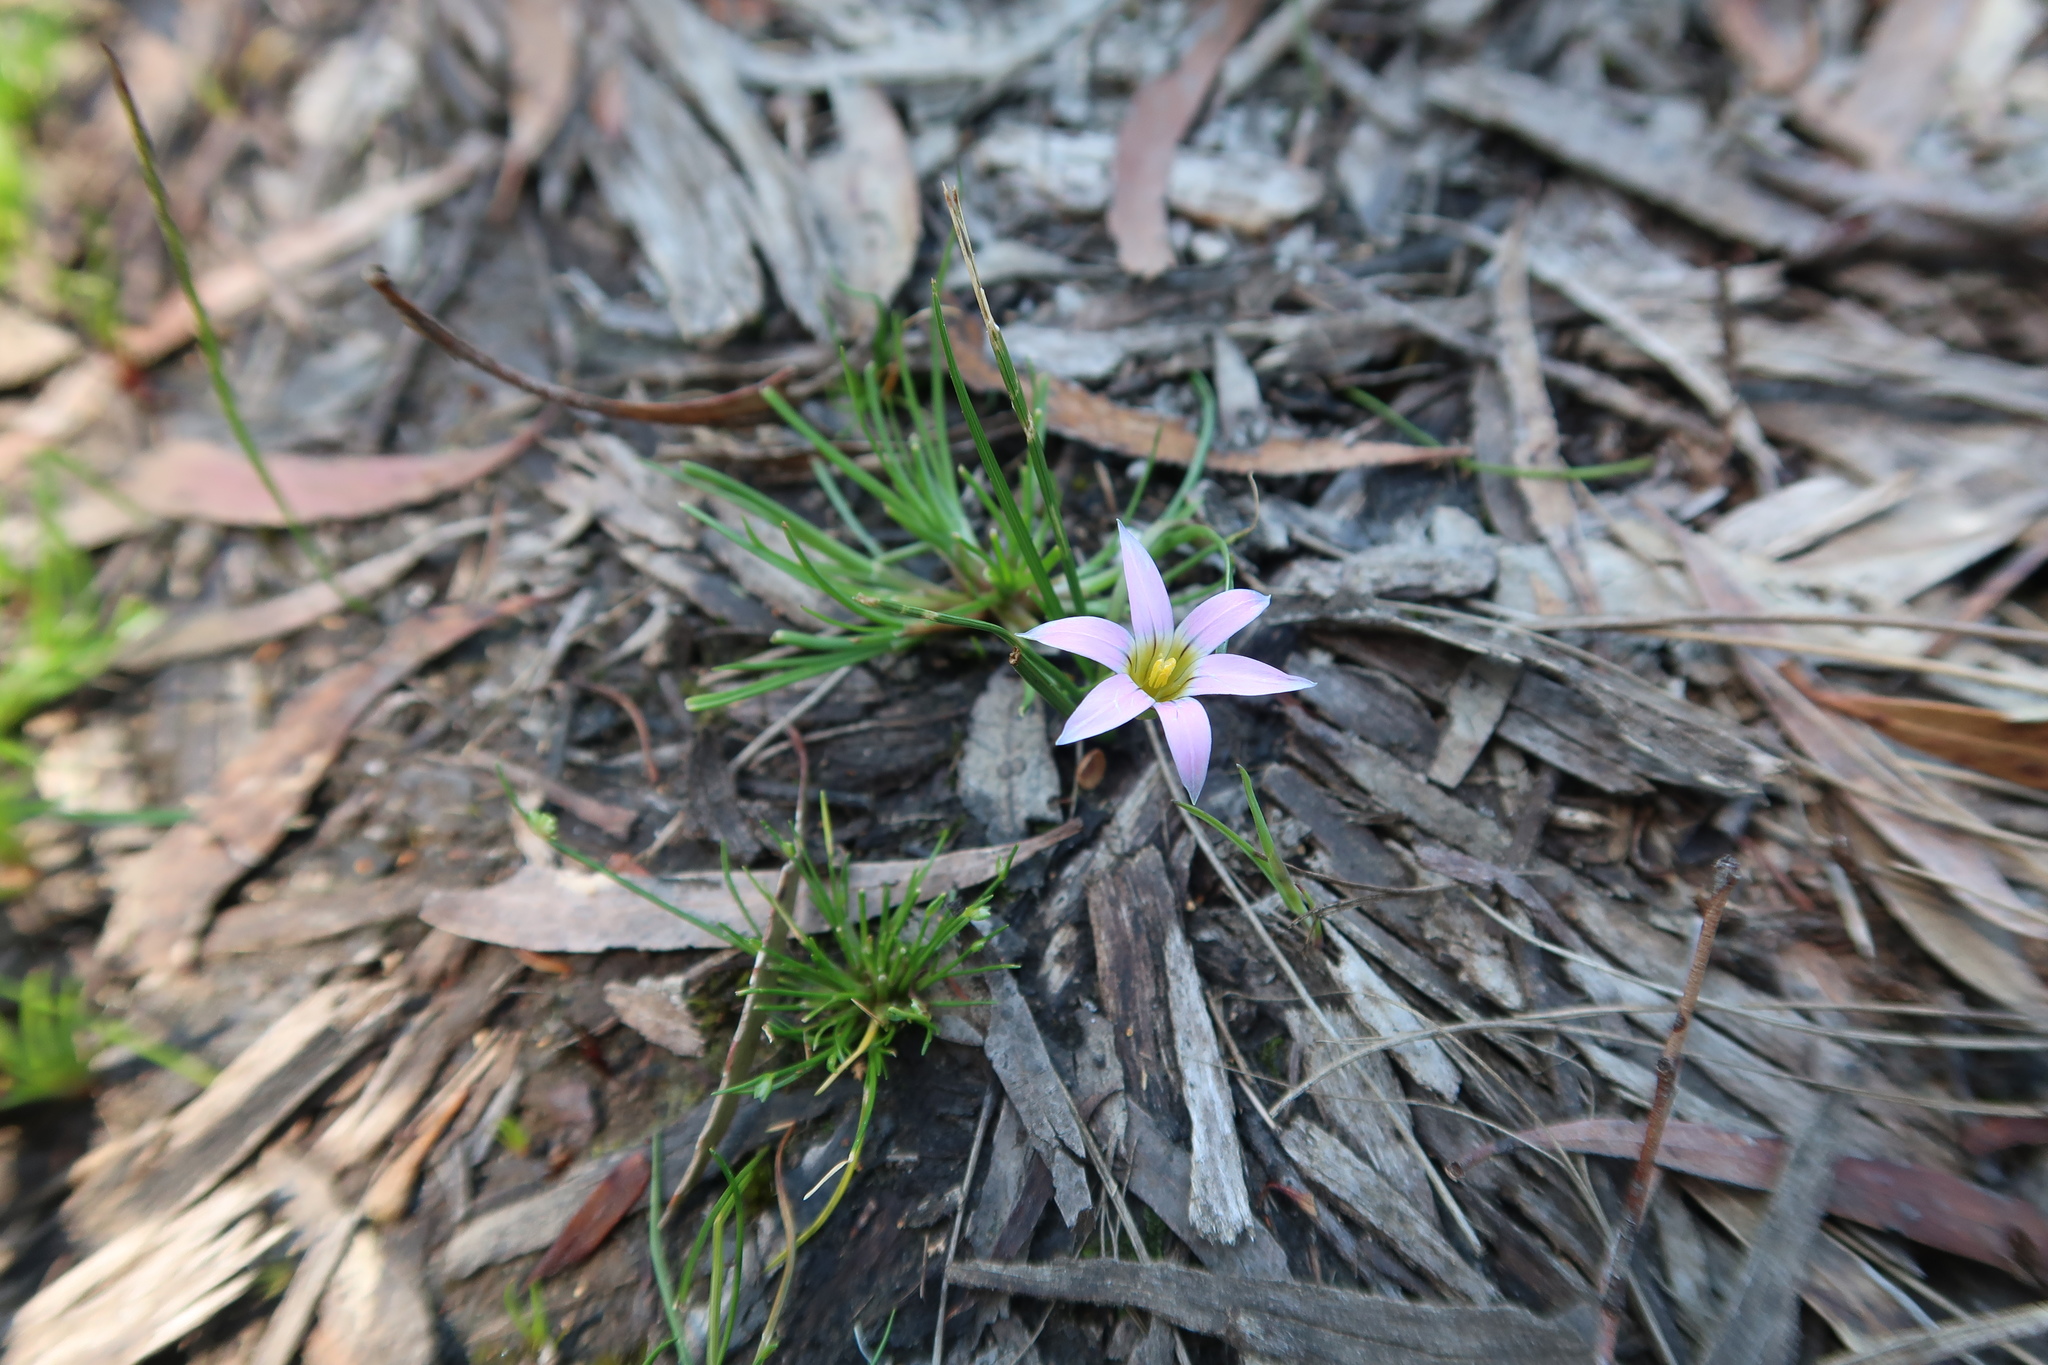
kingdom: Plantae
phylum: Tracheophyta
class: Liliopsida
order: Asparagales
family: Iridaceae
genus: Romulea
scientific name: Romulea rosea
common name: Oniongrass
